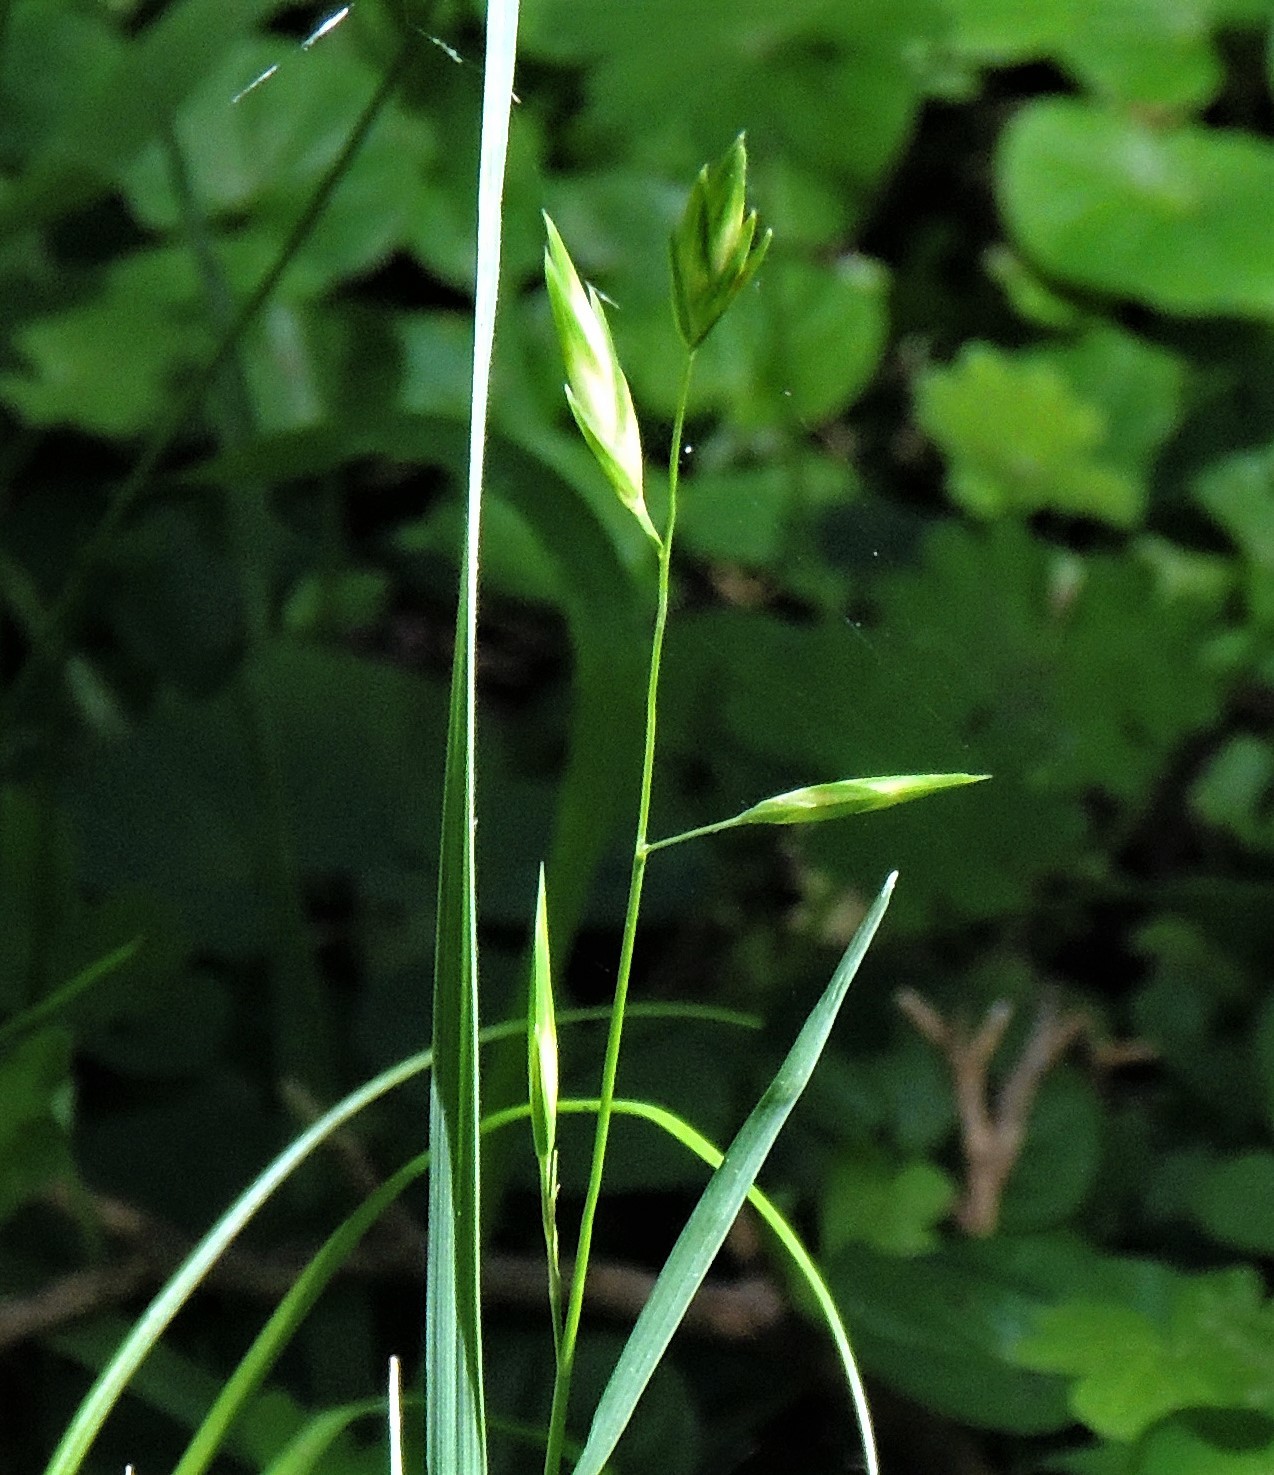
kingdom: Plantae
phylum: Tracheophyta
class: Liliopsida
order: Poales
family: Poaceae
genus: Bromus
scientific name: Bromus catharticus
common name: Rescuegrass
